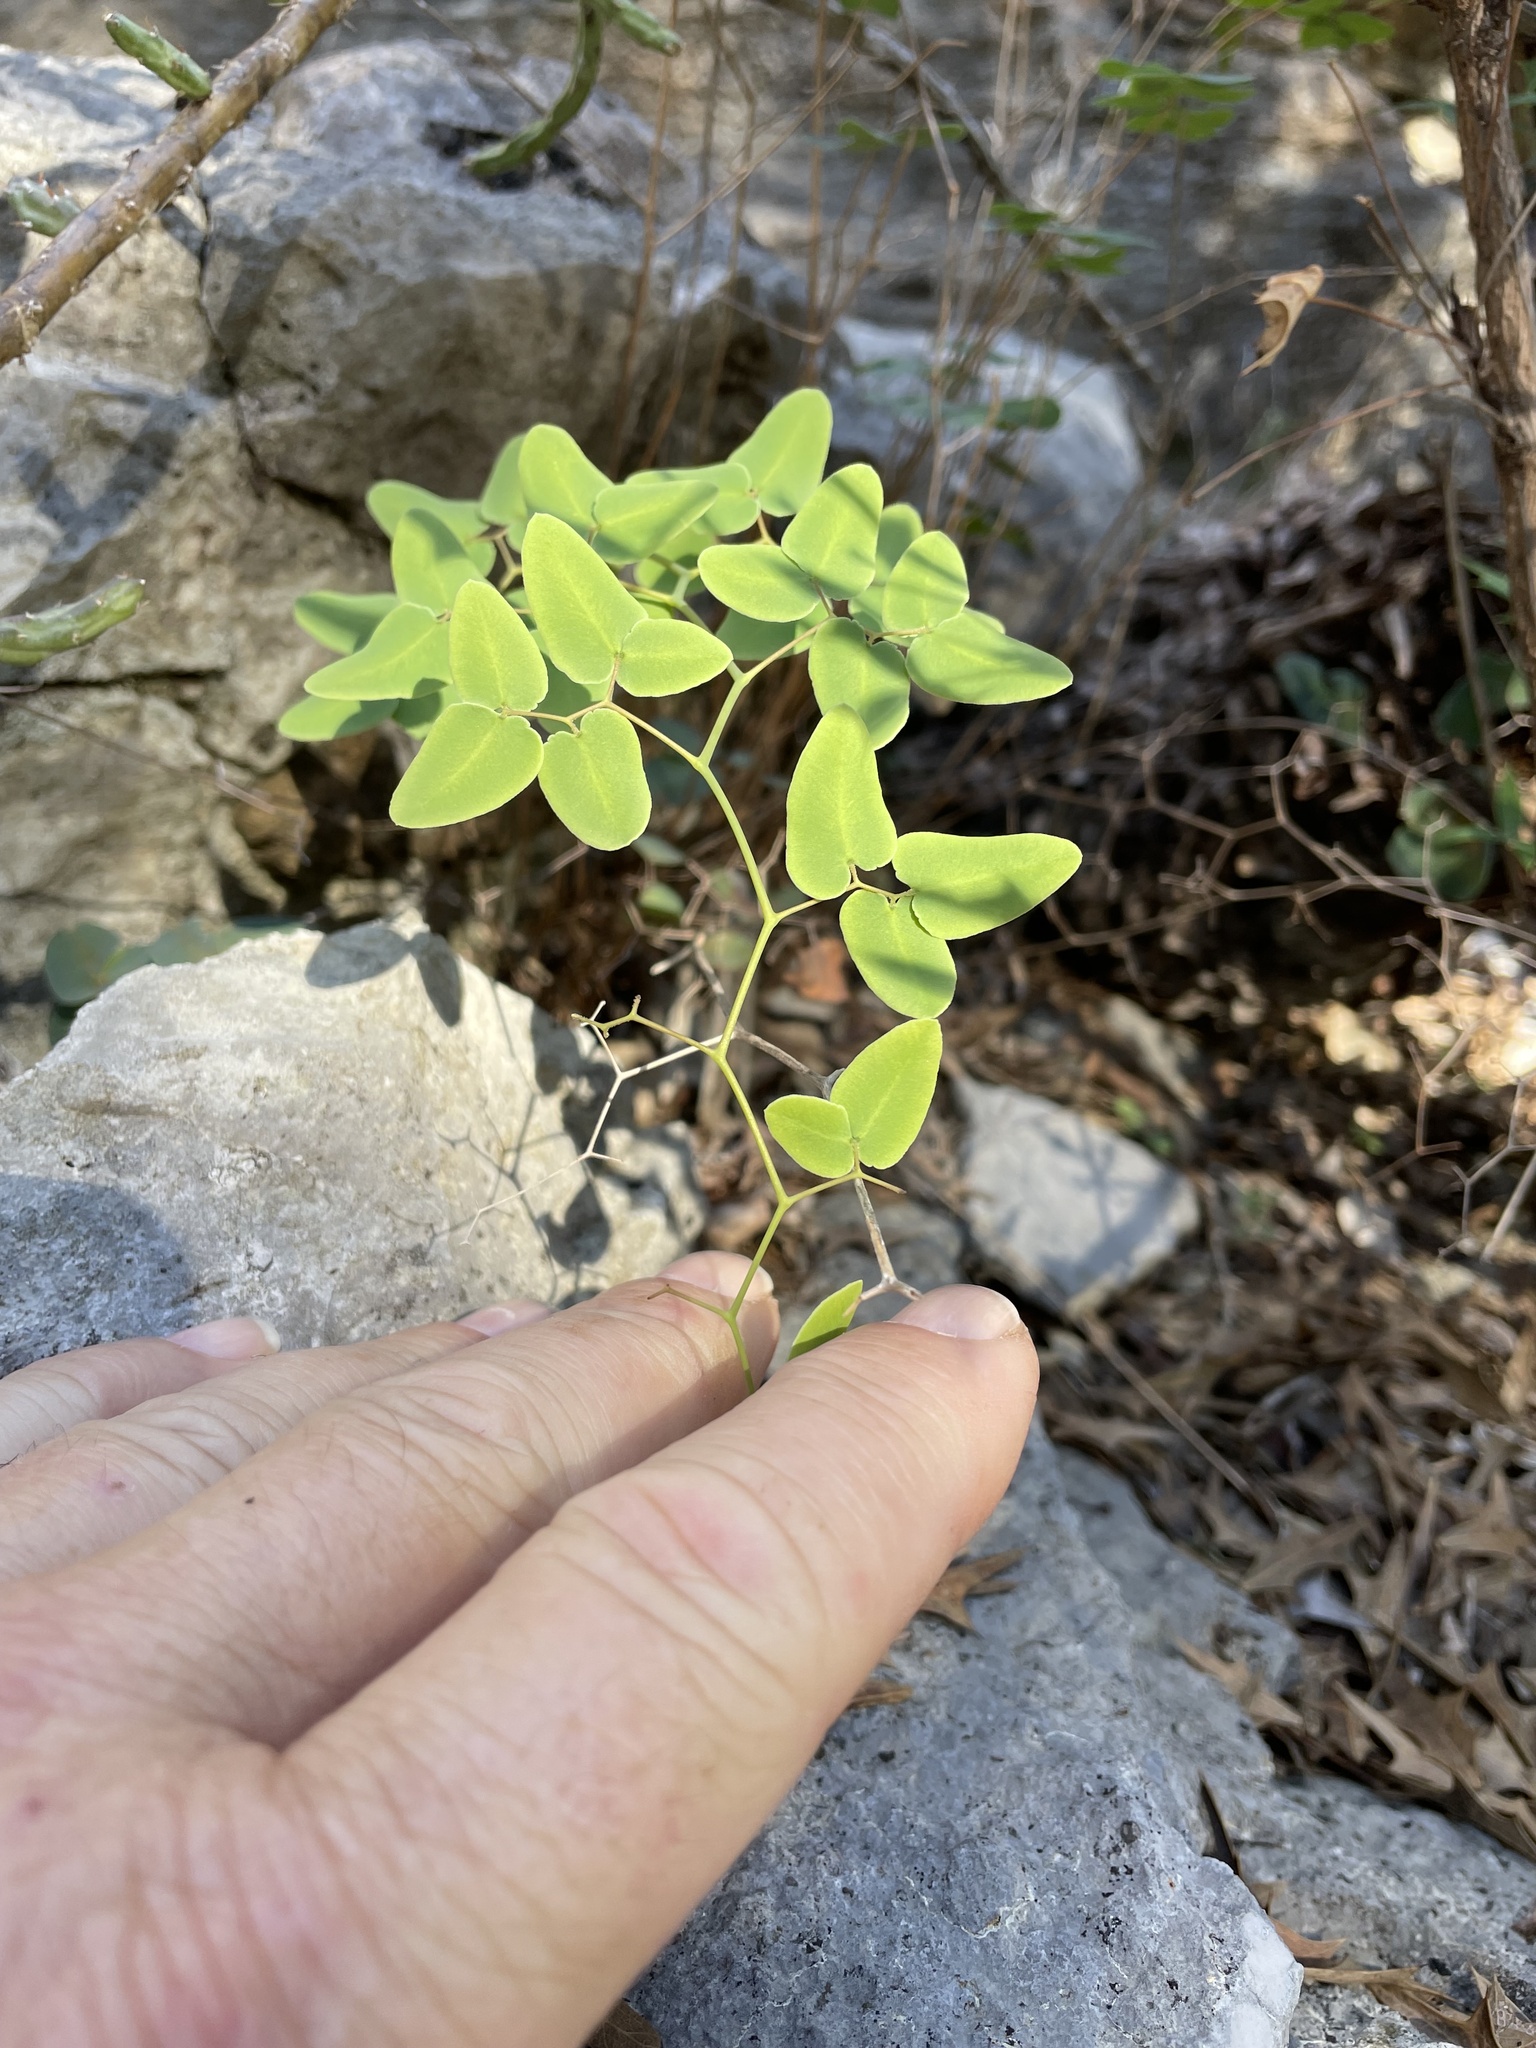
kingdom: Plantae
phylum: Tracheophyta
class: Polypodiopsida
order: Polypodiales
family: Pteridaceae
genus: Pellaea
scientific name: Pellaea ovata
